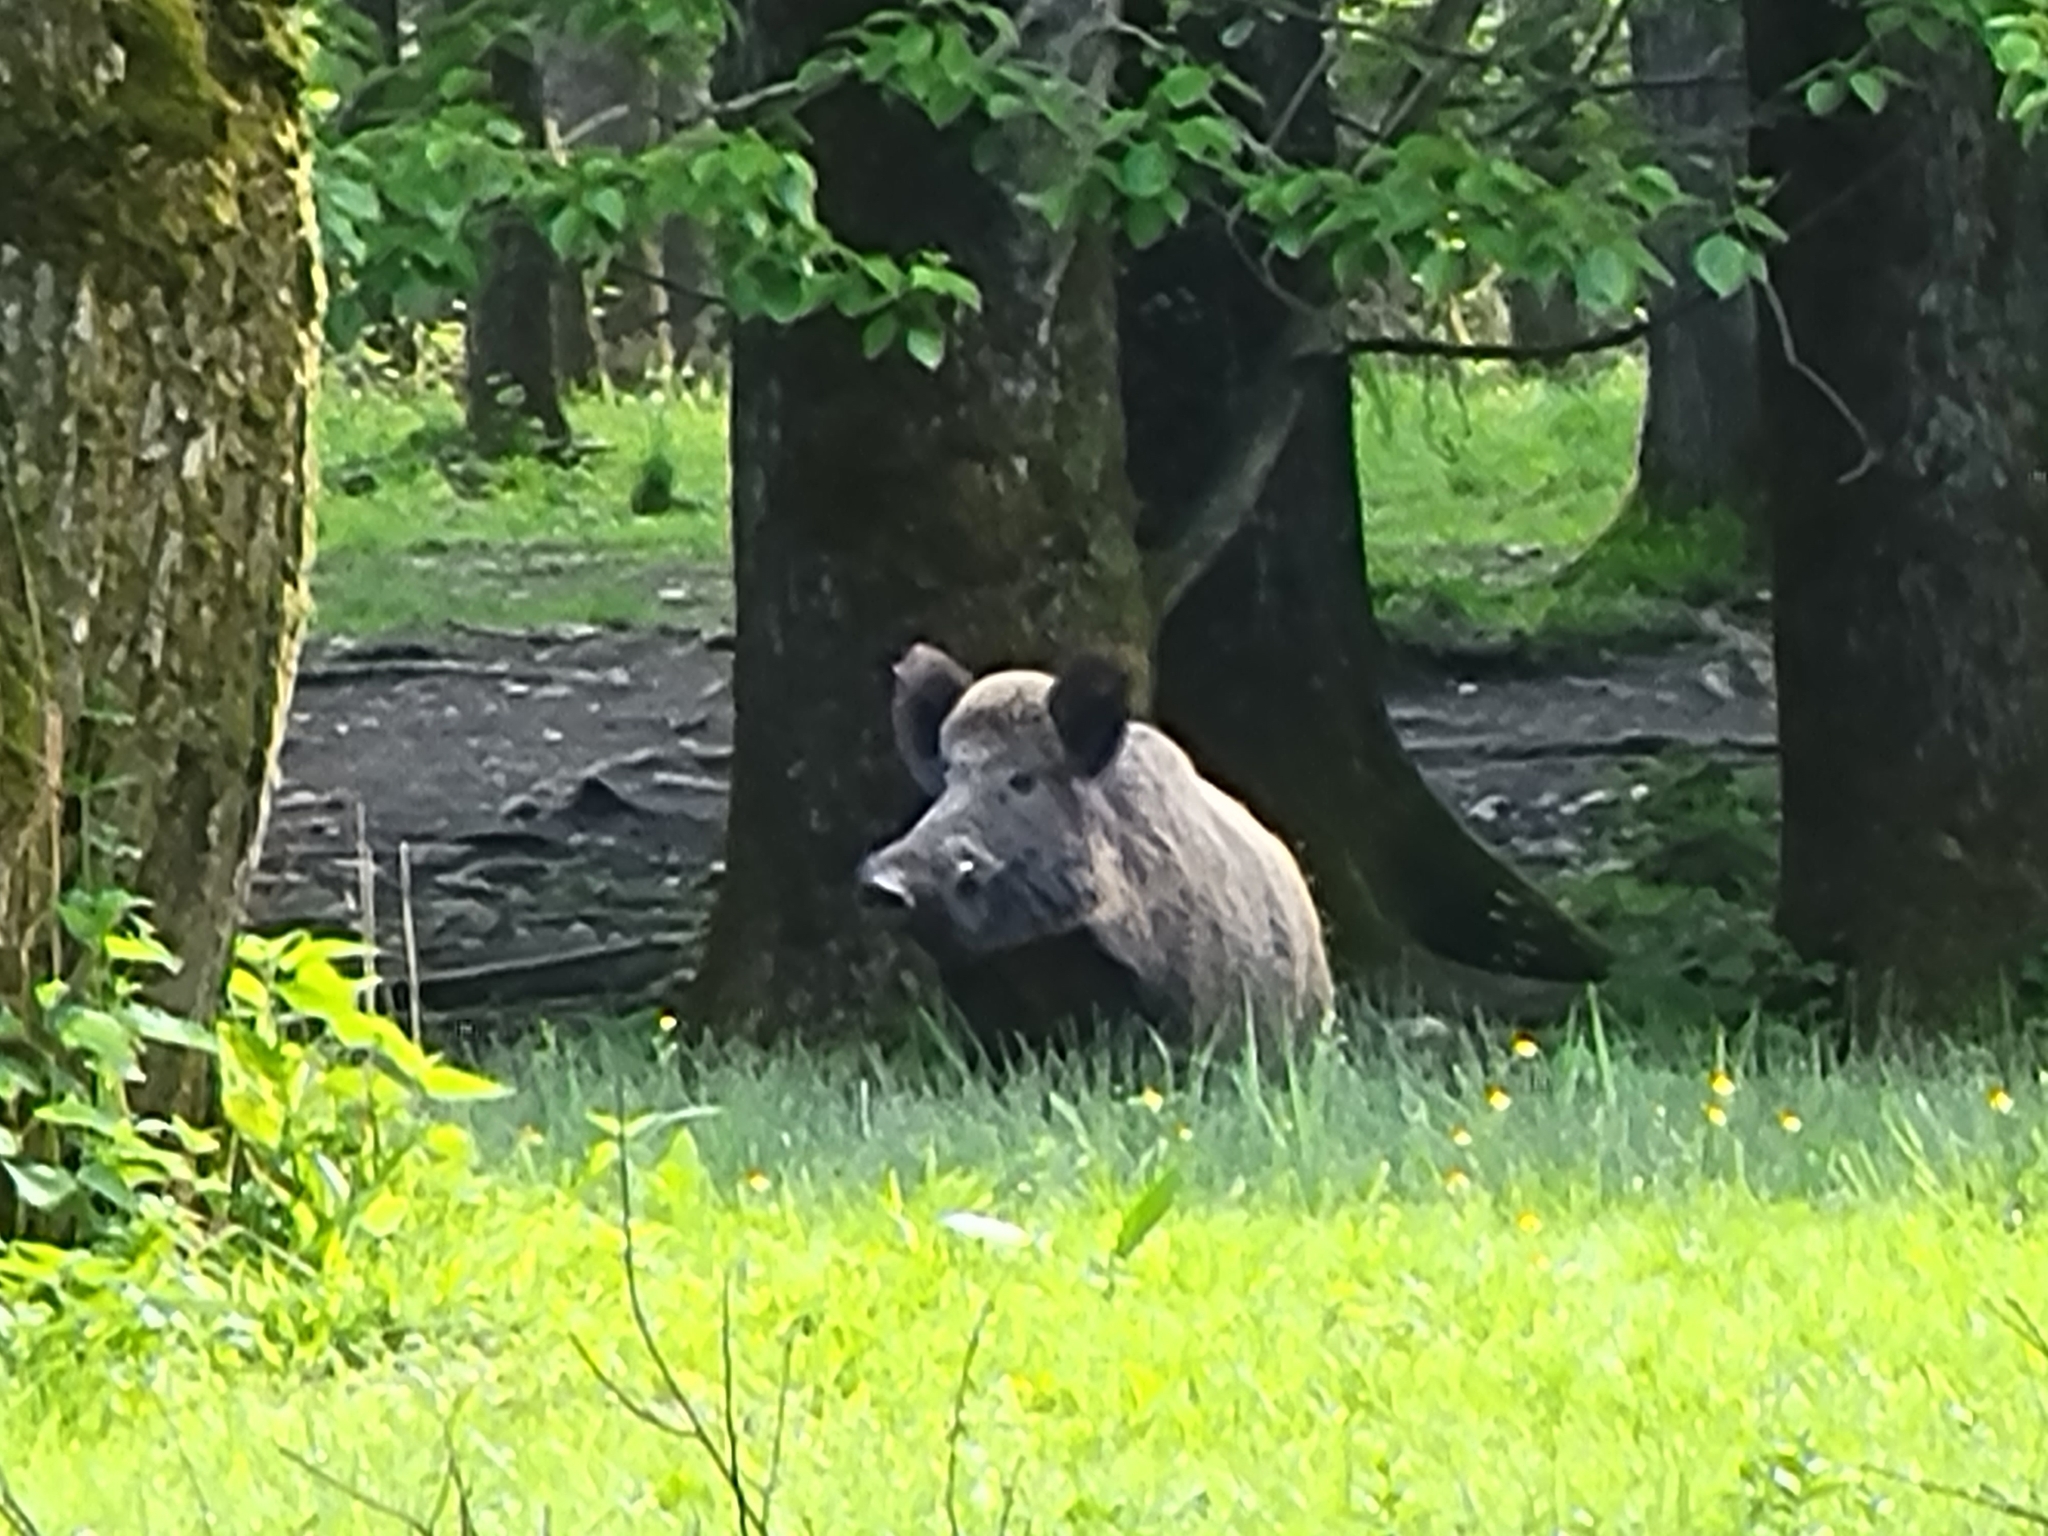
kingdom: Animalia
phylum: Chordata
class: Mammalia
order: Artiodactyla
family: Suidae
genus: Sus
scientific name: Sus scrofa
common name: Wild boar
